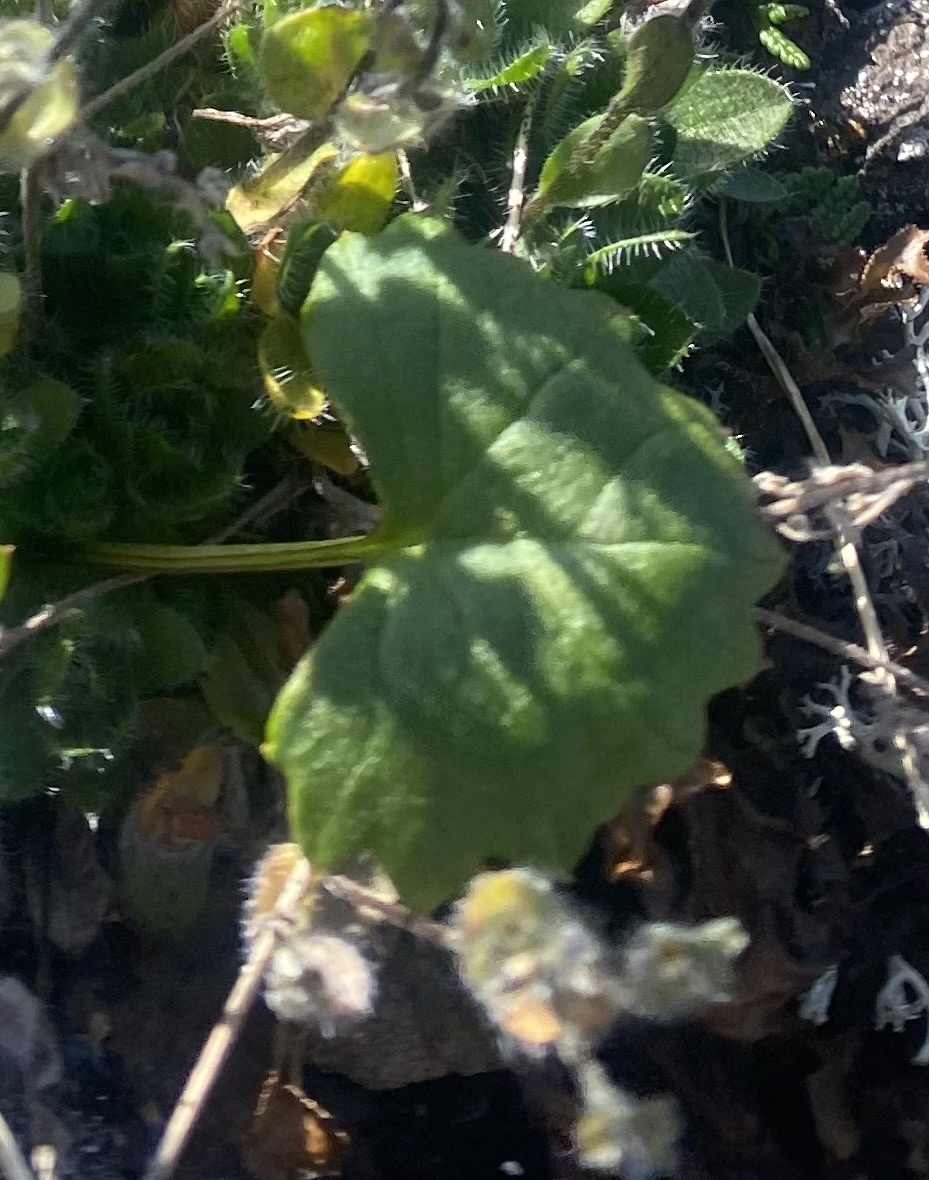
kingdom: Plantae
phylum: Tracheophyta
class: Magnoliopsida
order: Asterales
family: Asteraceae
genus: Endocellion
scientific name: Endocellion glaciale
